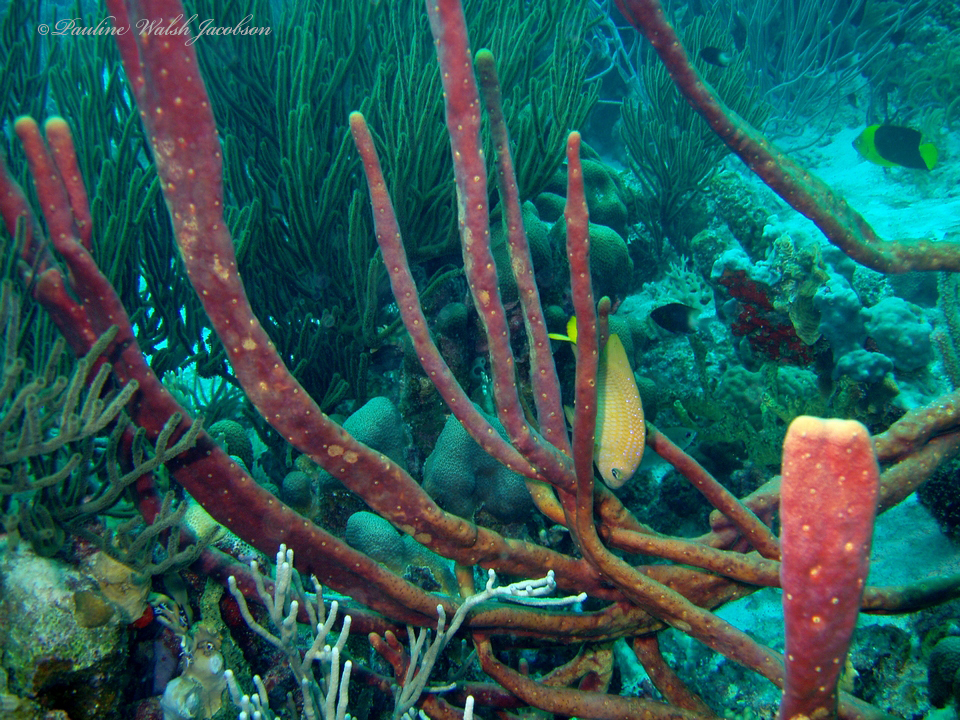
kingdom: Animalia
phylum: Chordata
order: Perciformes
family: Pomacentridae
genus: Microspathodon
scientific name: Microspathodon chrysurus
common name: Yellowtail damselfish
